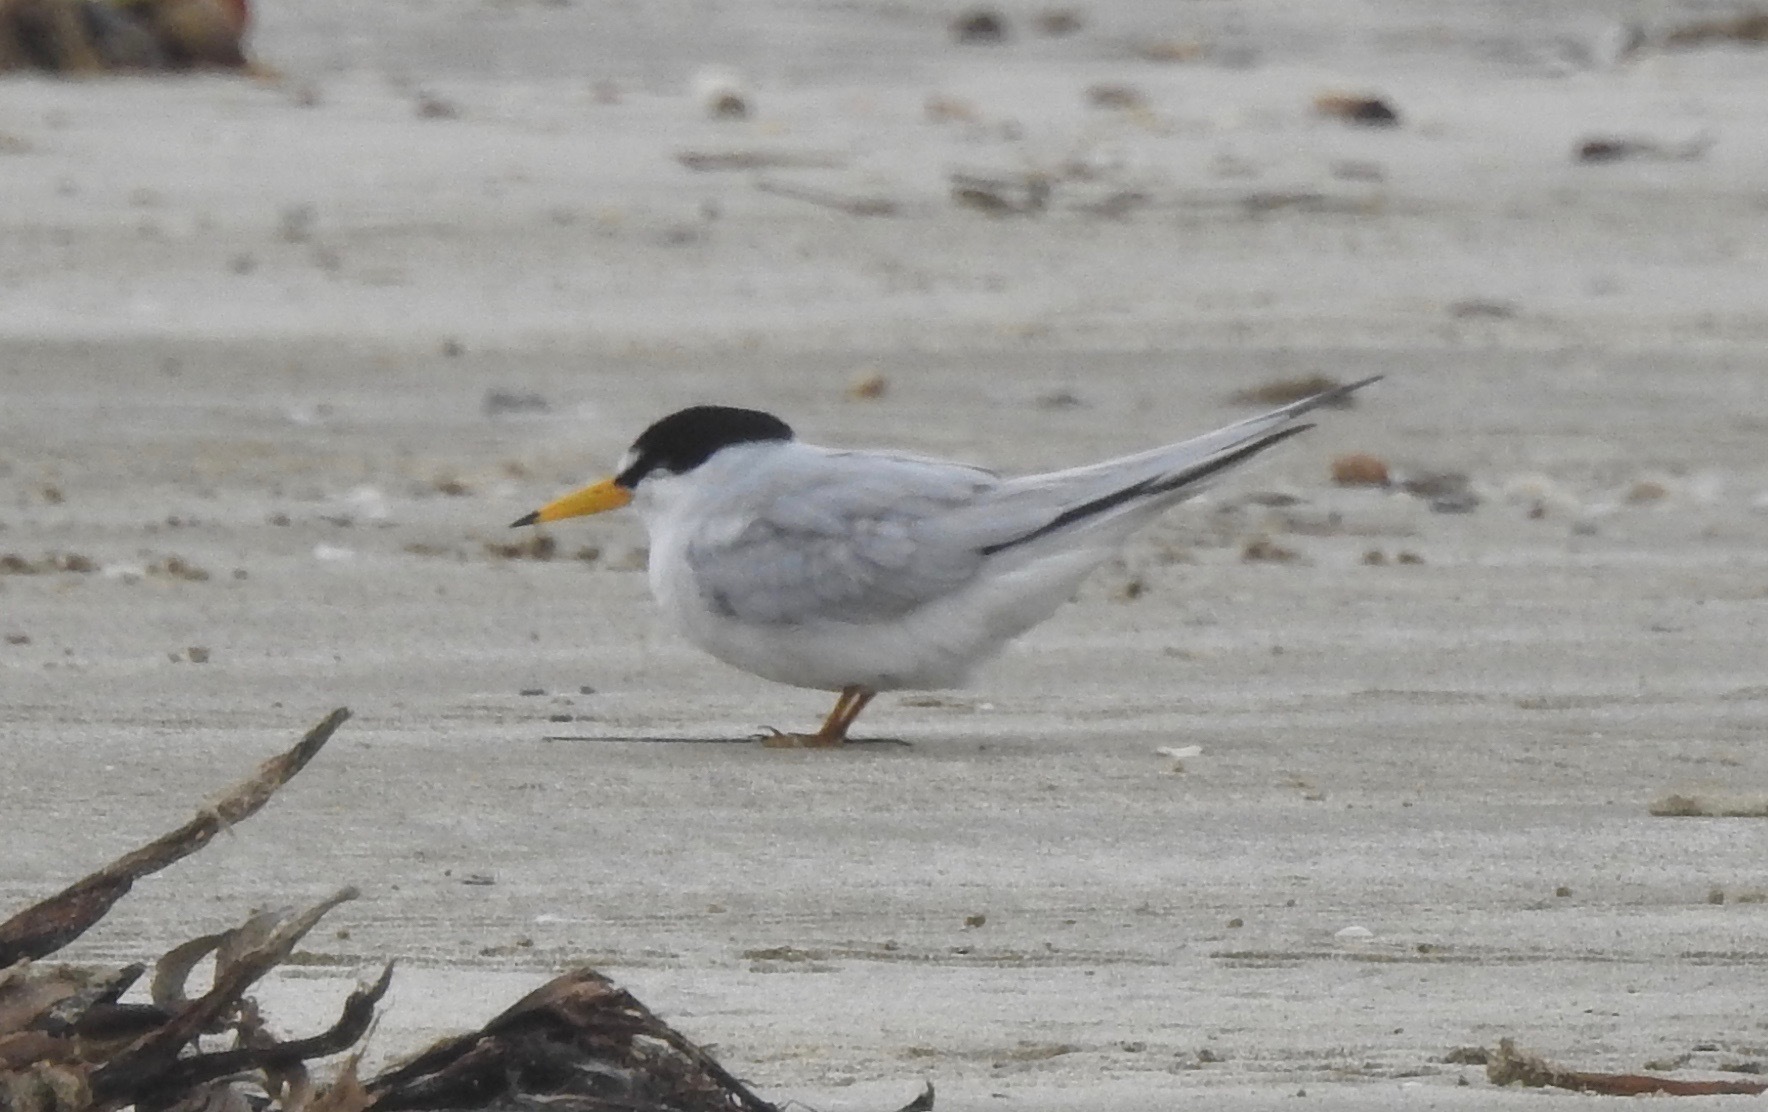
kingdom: Animalia
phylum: Chordata
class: Aves
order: Charadriiformes
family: Laridae
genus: Sternula
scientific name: Sternula antillarum
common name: Least tern
